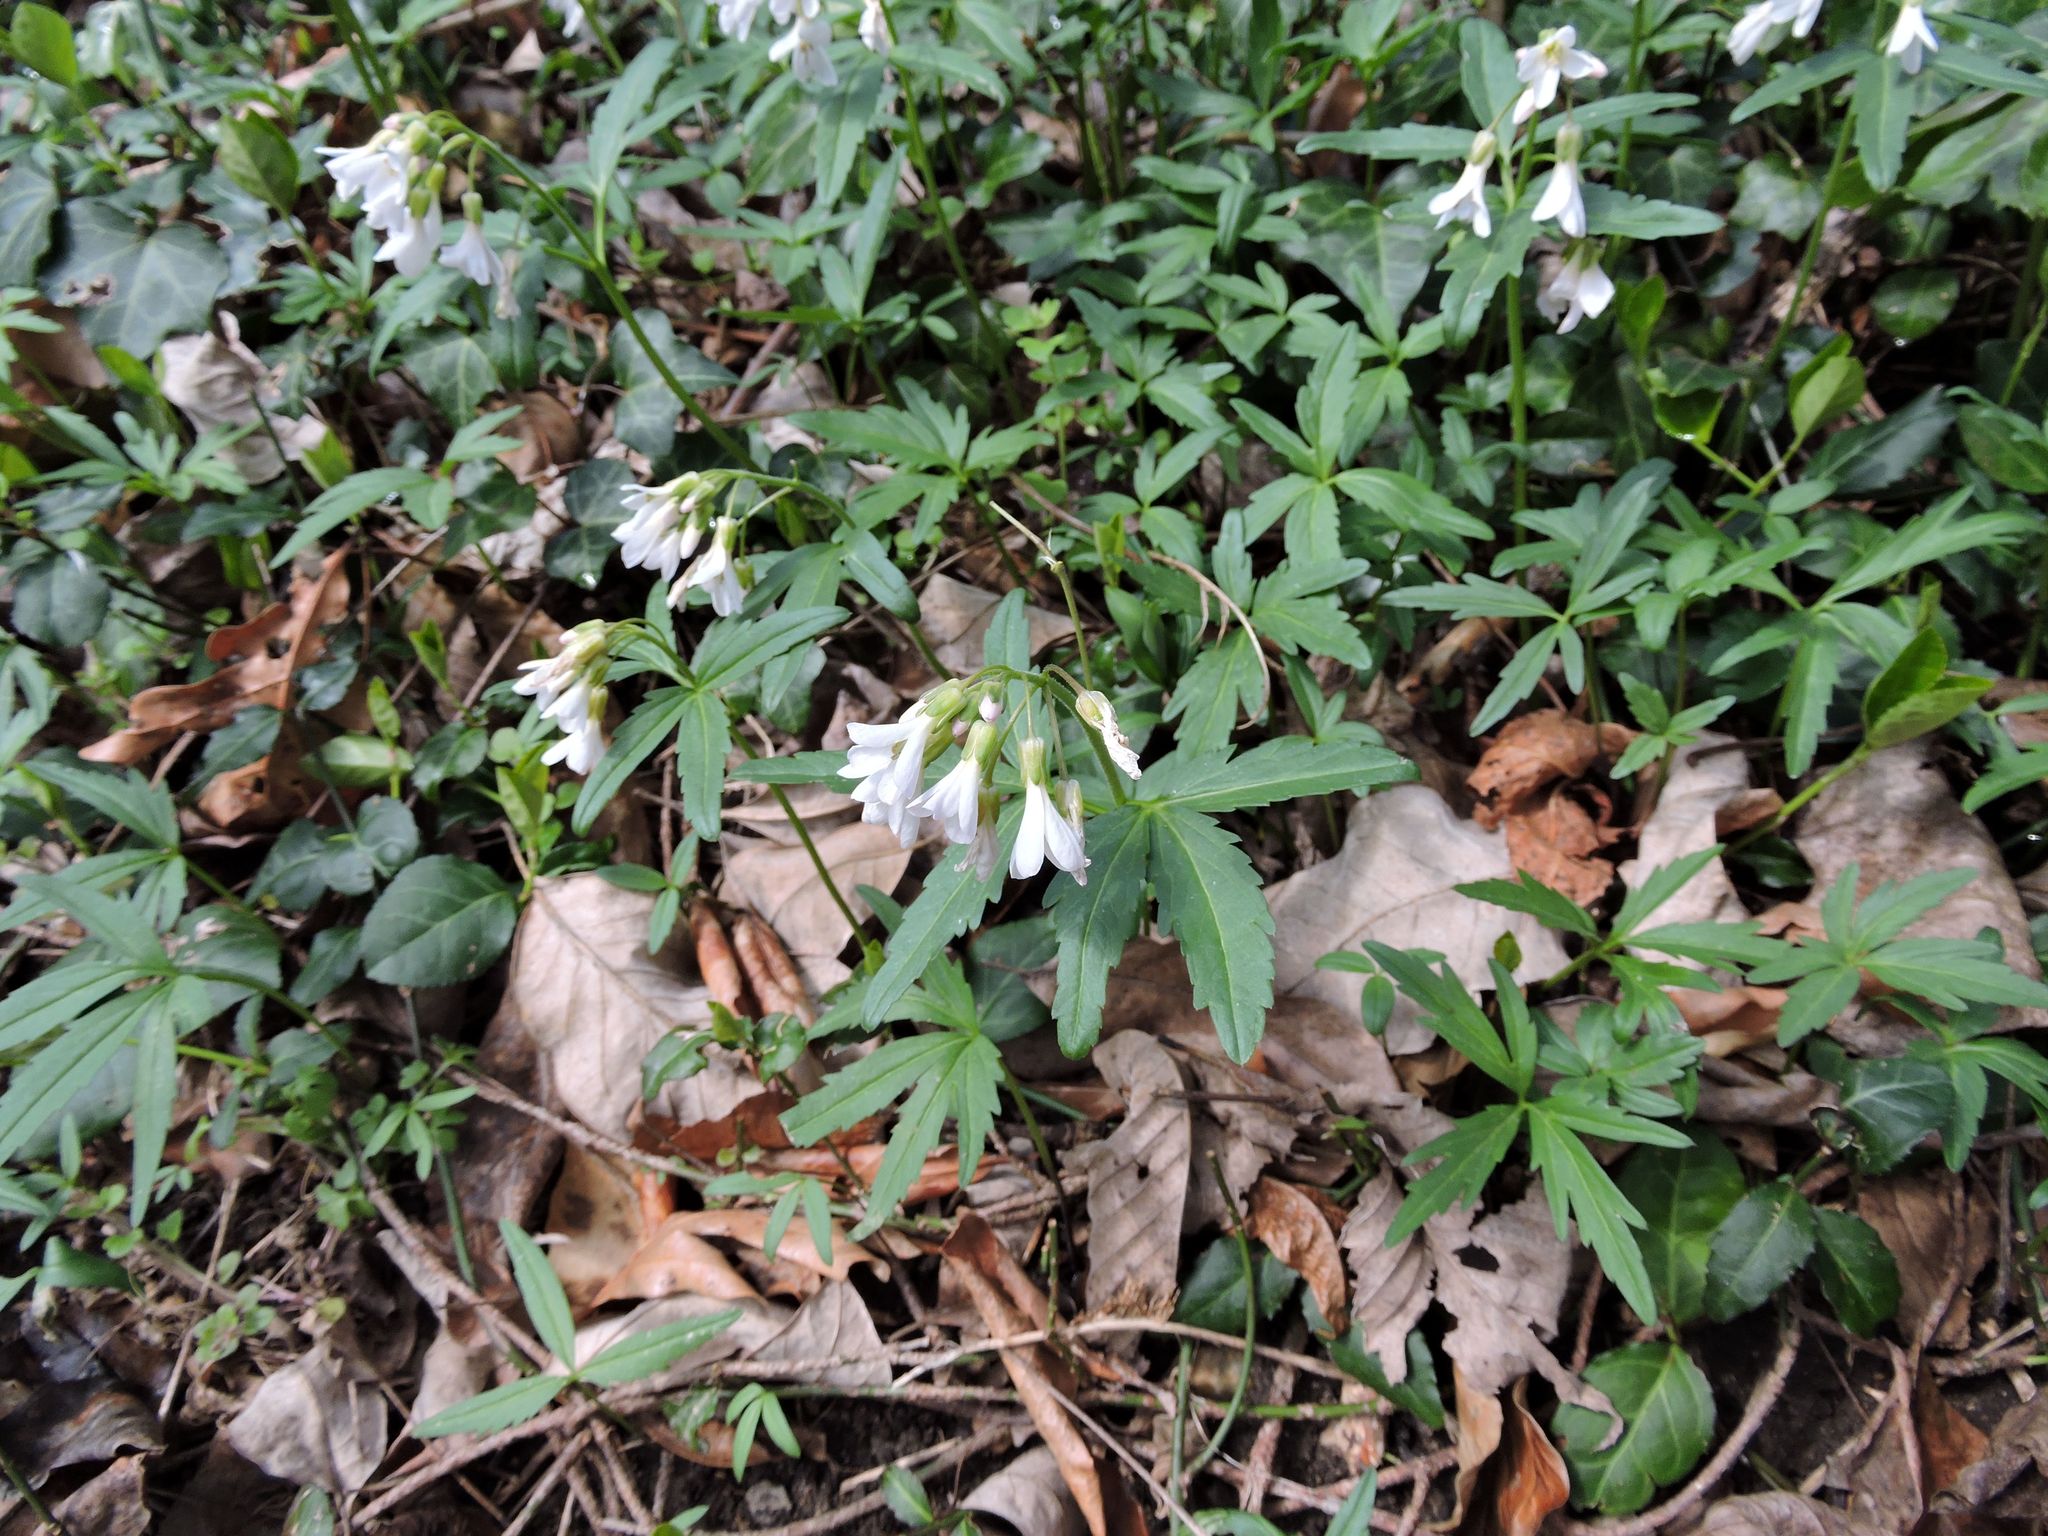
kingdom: Plantae
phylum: Tracheophyta
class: Magnoliopsida
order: Brassicales
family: Brassicaceae
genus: Cardamine
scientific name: Cardamine concatenata
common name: Cut-leaf toothcup
